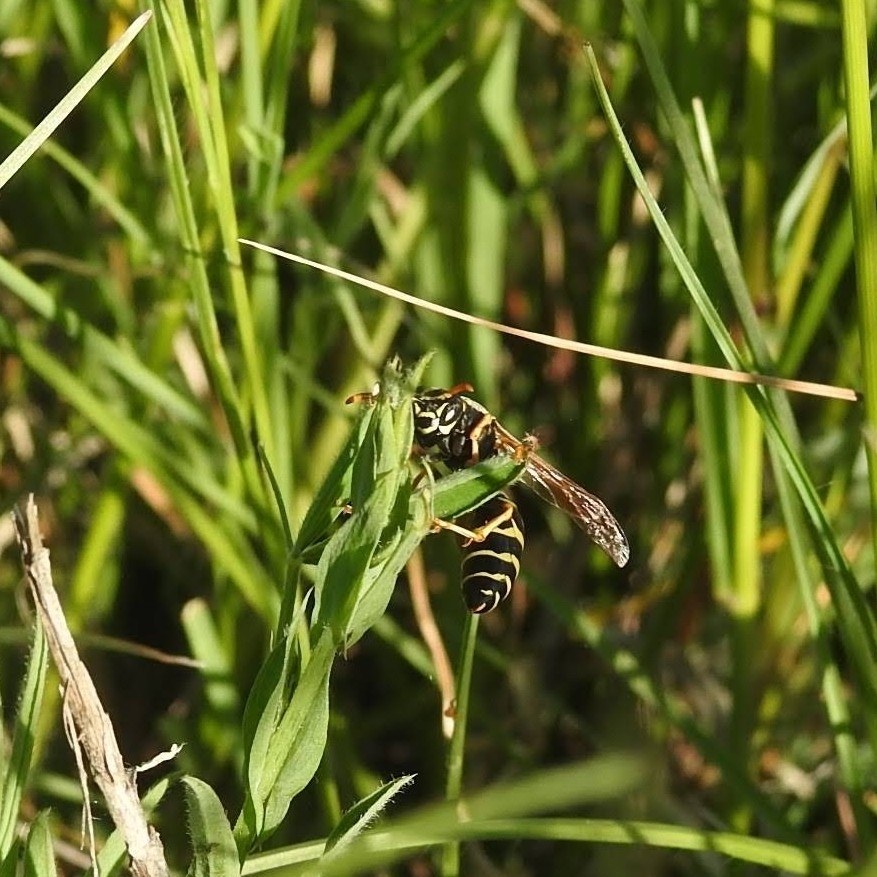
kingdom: Animalia
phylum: Arthropoda
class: Insecta
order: Hymenoptera
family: Eumenidae
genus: Polistes
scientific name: Polistes nimpha
